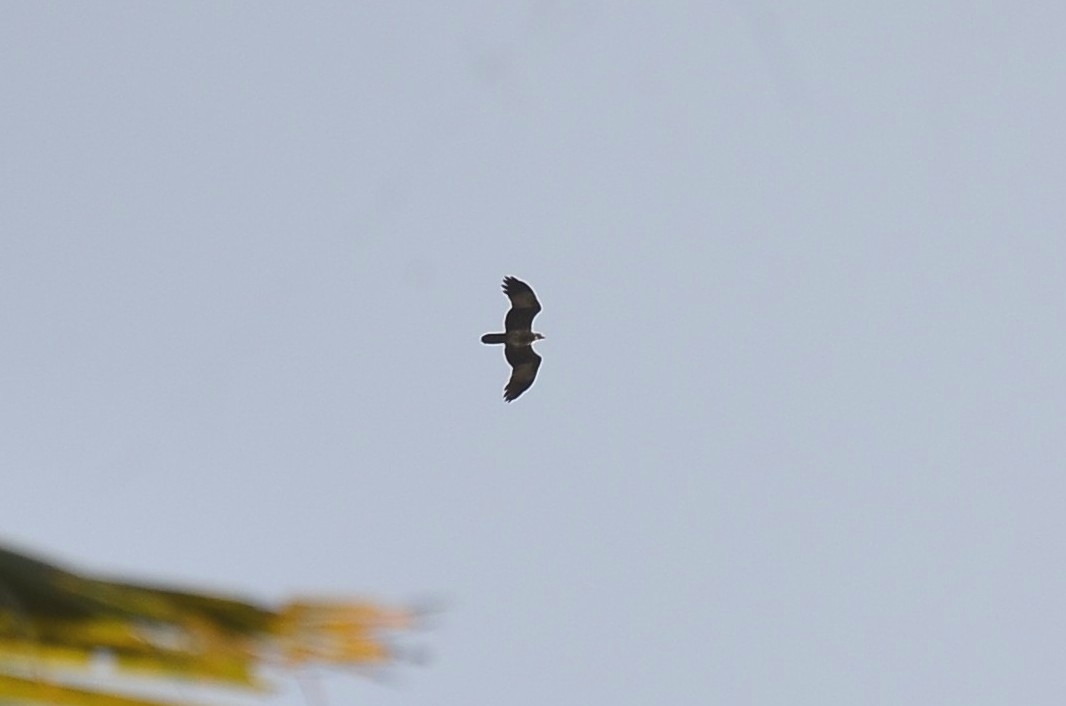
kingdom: Animalia
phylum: Chordata
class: Aves
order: Accipitriformes
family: Accipitridae
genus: Haliastur
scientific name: Haliastur indus
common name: Brahminy kite
